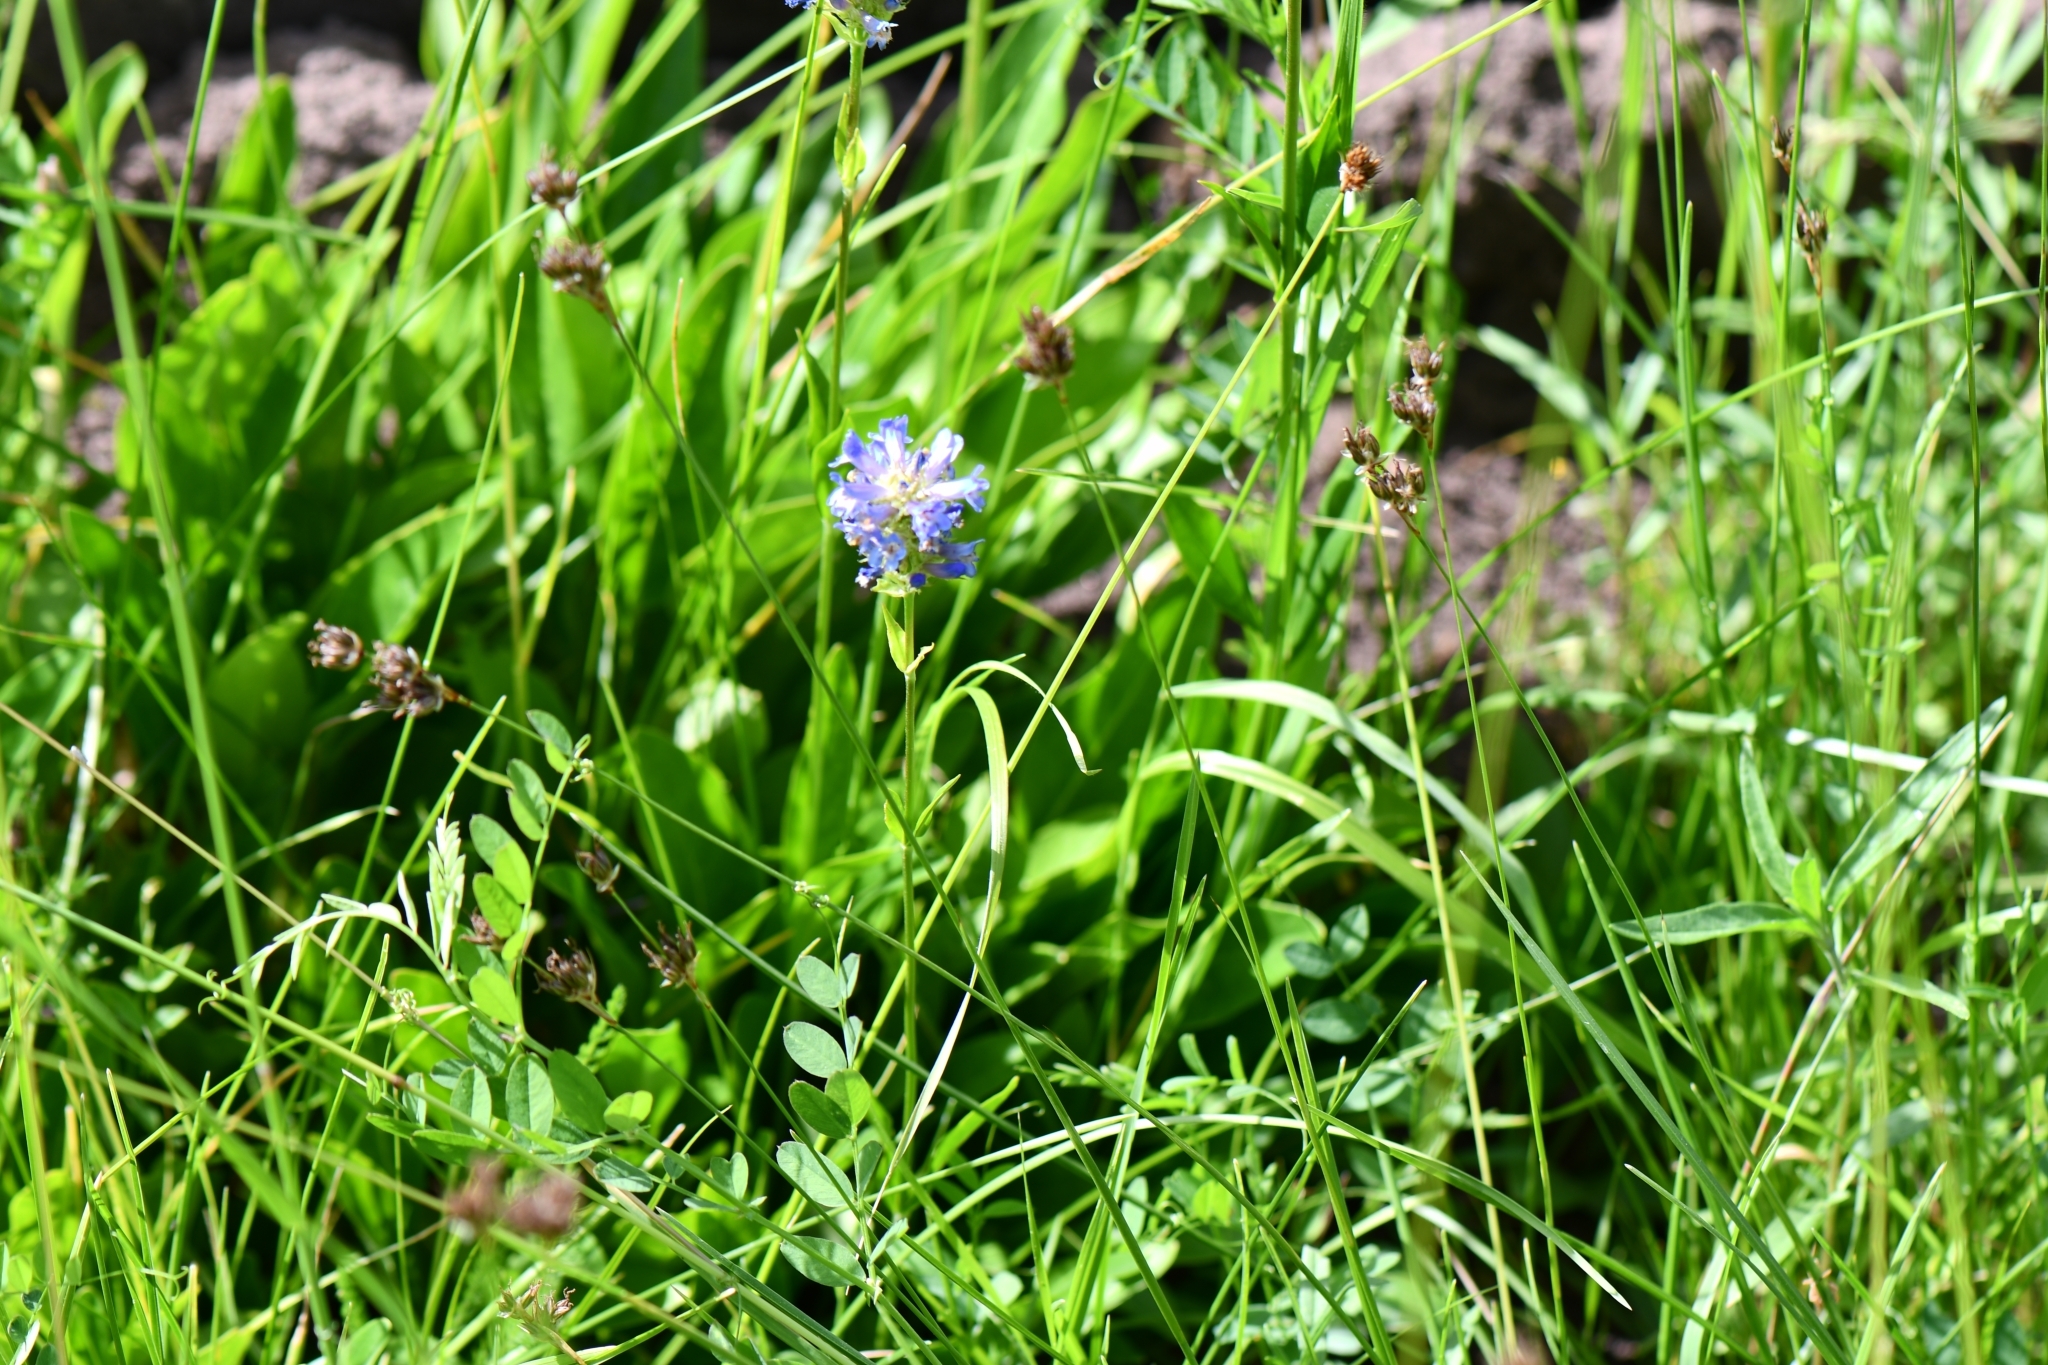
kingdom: Plantae
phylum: Tracheophyta
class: Magnoliopsida
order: Lamiales
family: Plantaginaceae
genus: Penstemon
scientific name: Penstemon rydbergii
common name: Rydberg's beardtongue
